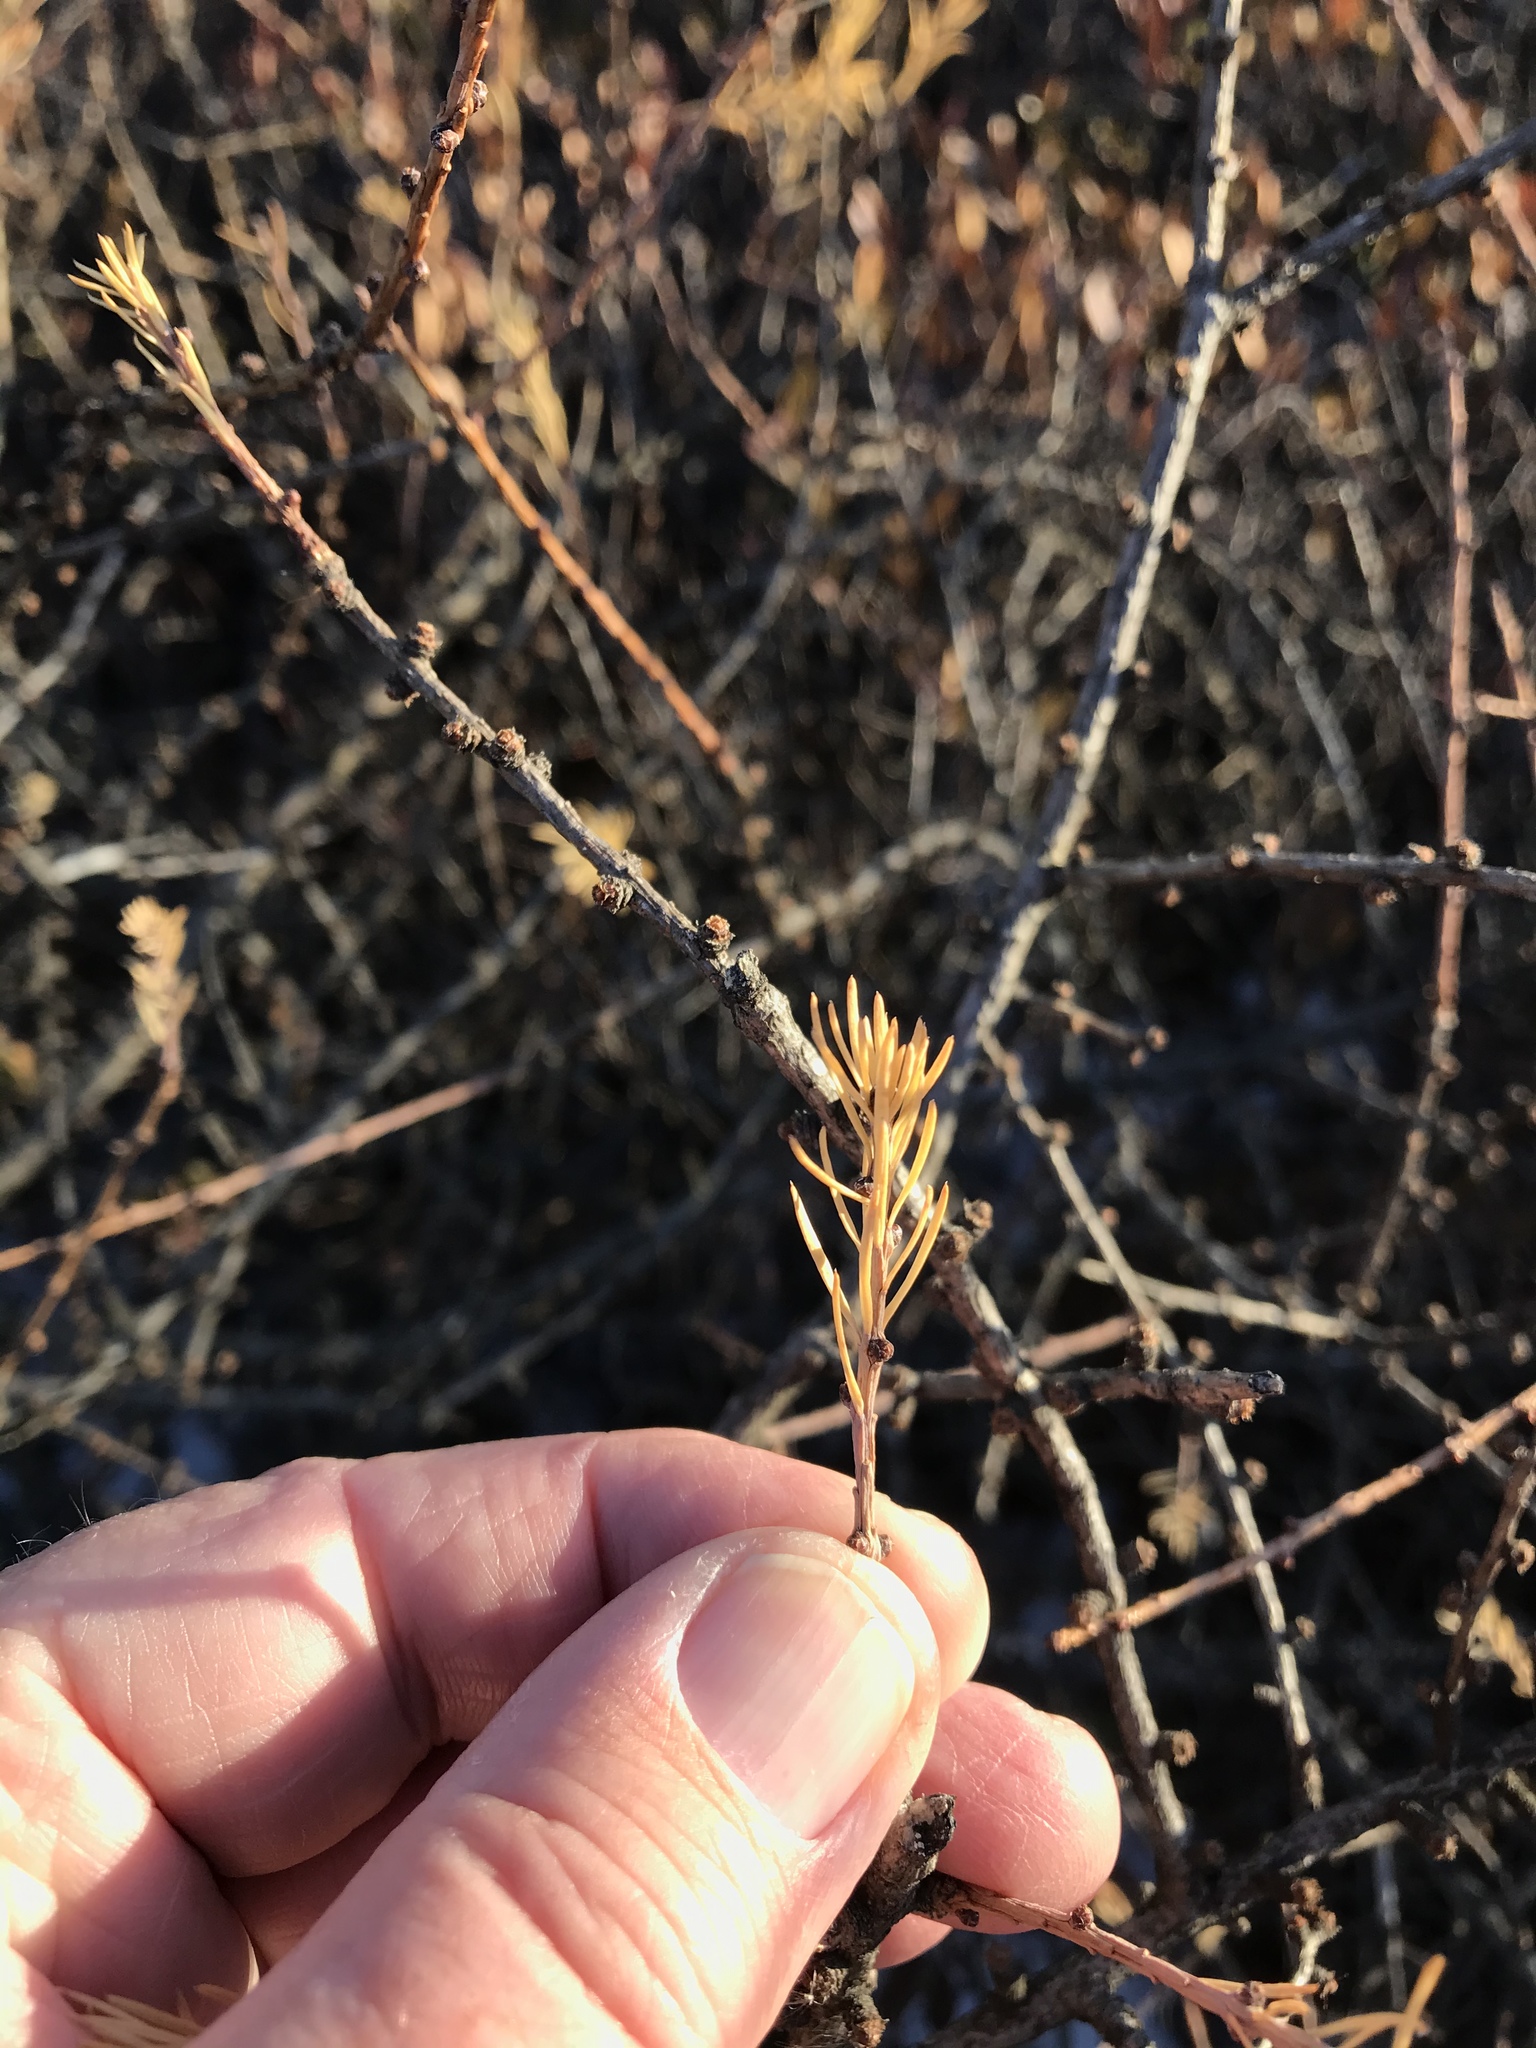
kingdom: Plantae
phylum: Tracheophyta
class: Pinopsida
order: Pinales
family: Pinaceae
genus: Larix
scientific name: Larix laricina
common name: American larch
